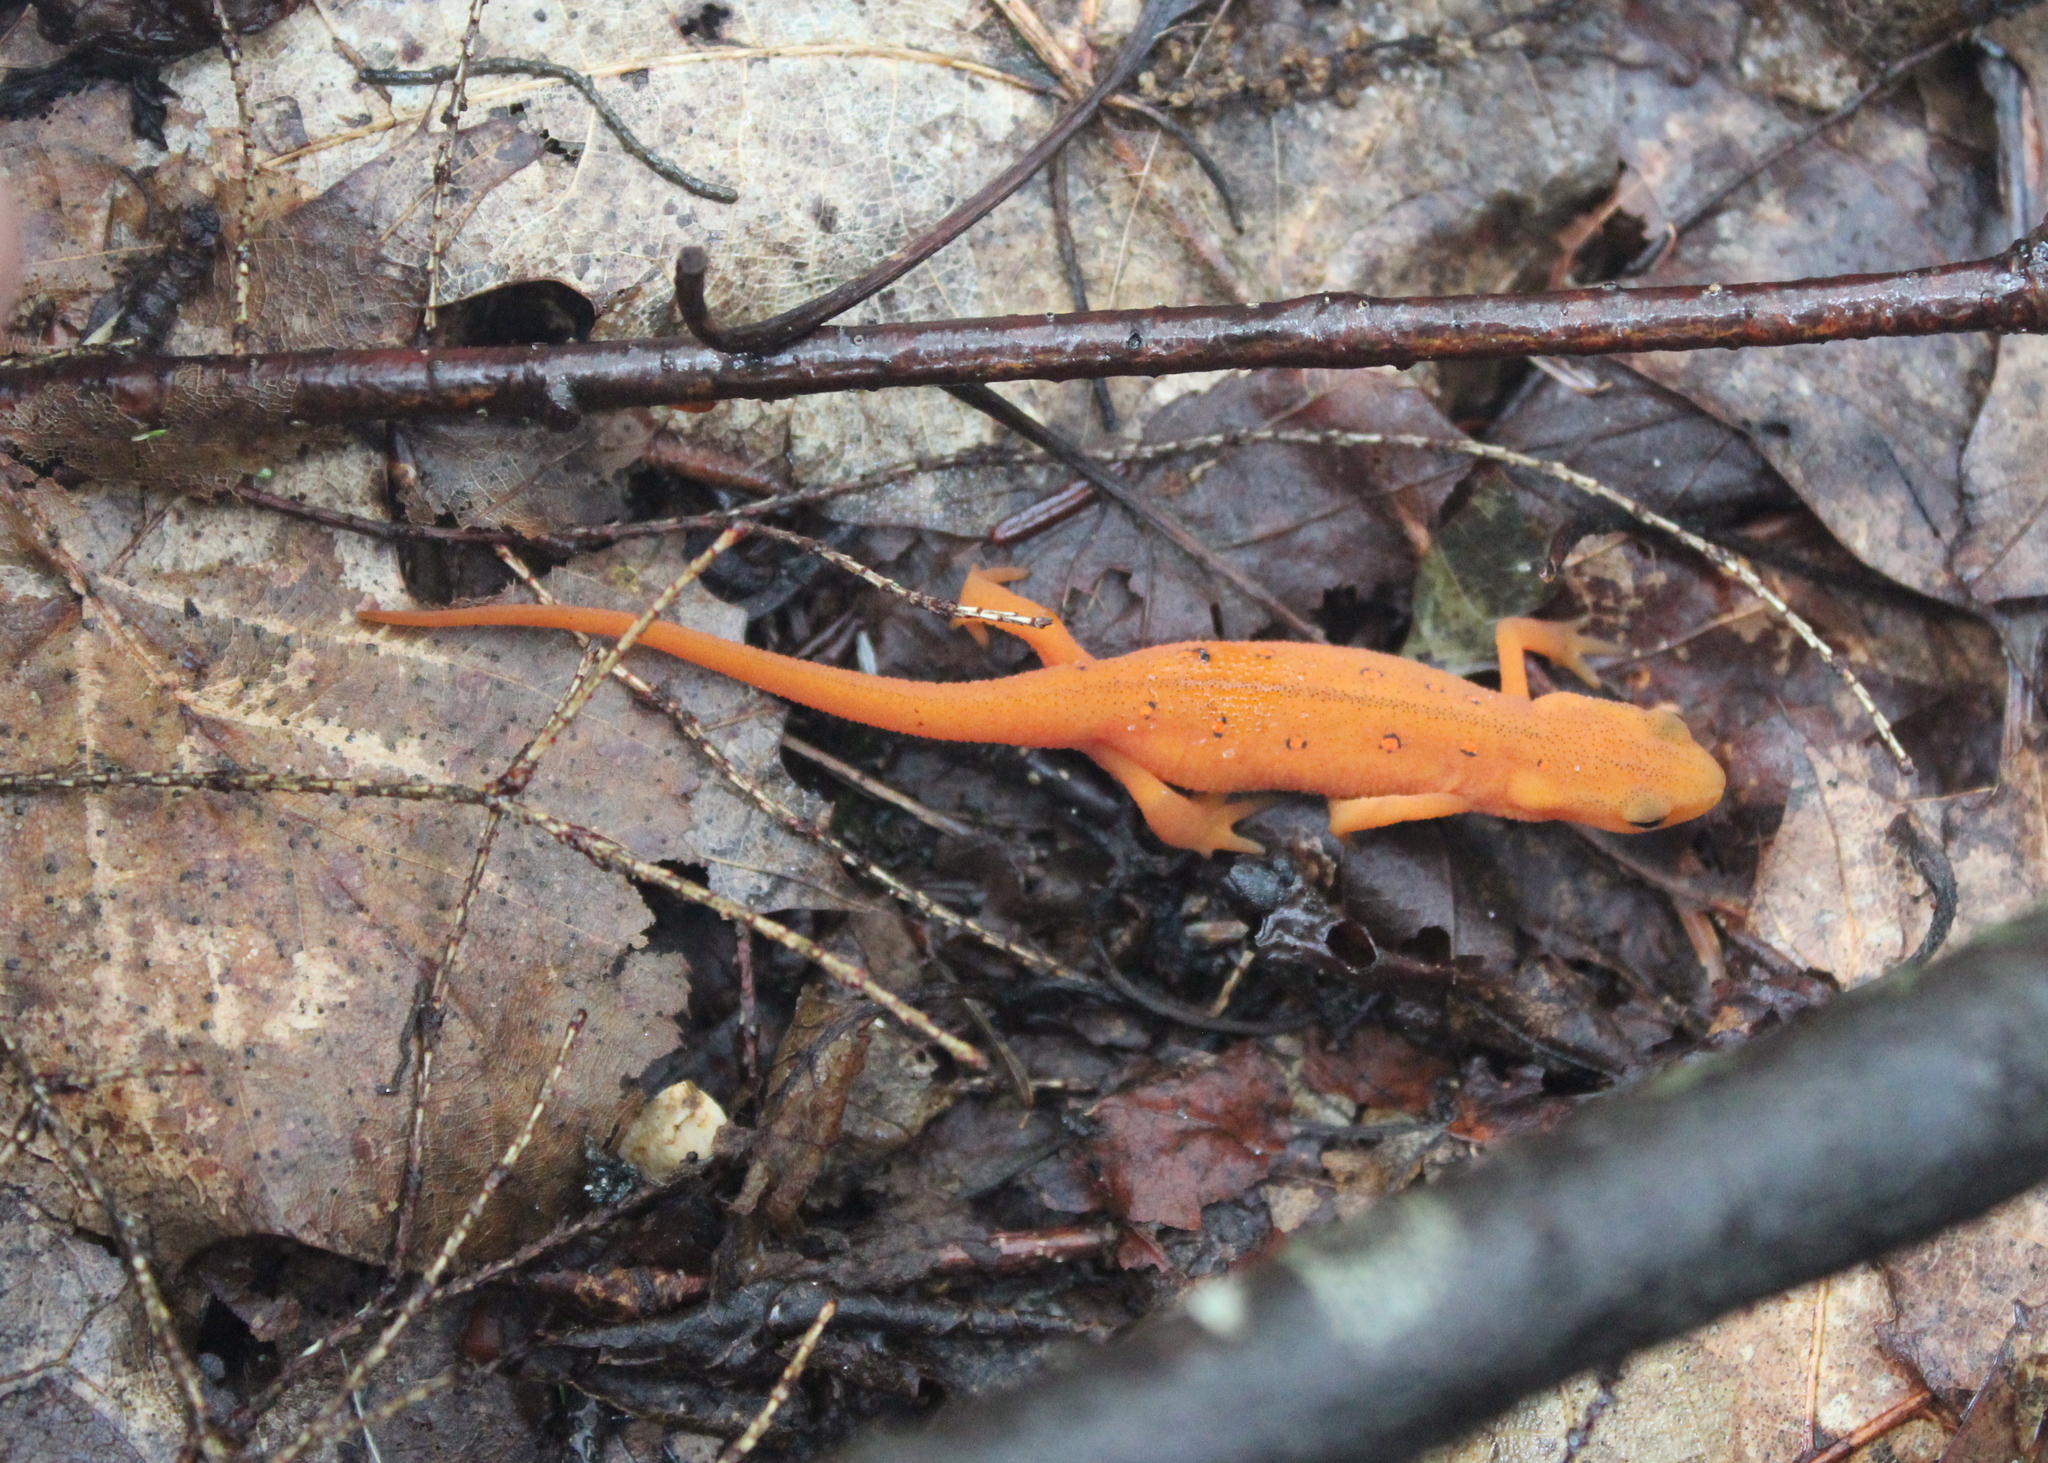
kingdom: Animalia
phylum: Chordata
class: Amphibia
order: Caudata
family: Salamandridae
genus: Notophthalmus
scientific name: Notophthalmus viridescens
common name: Eastern newt
